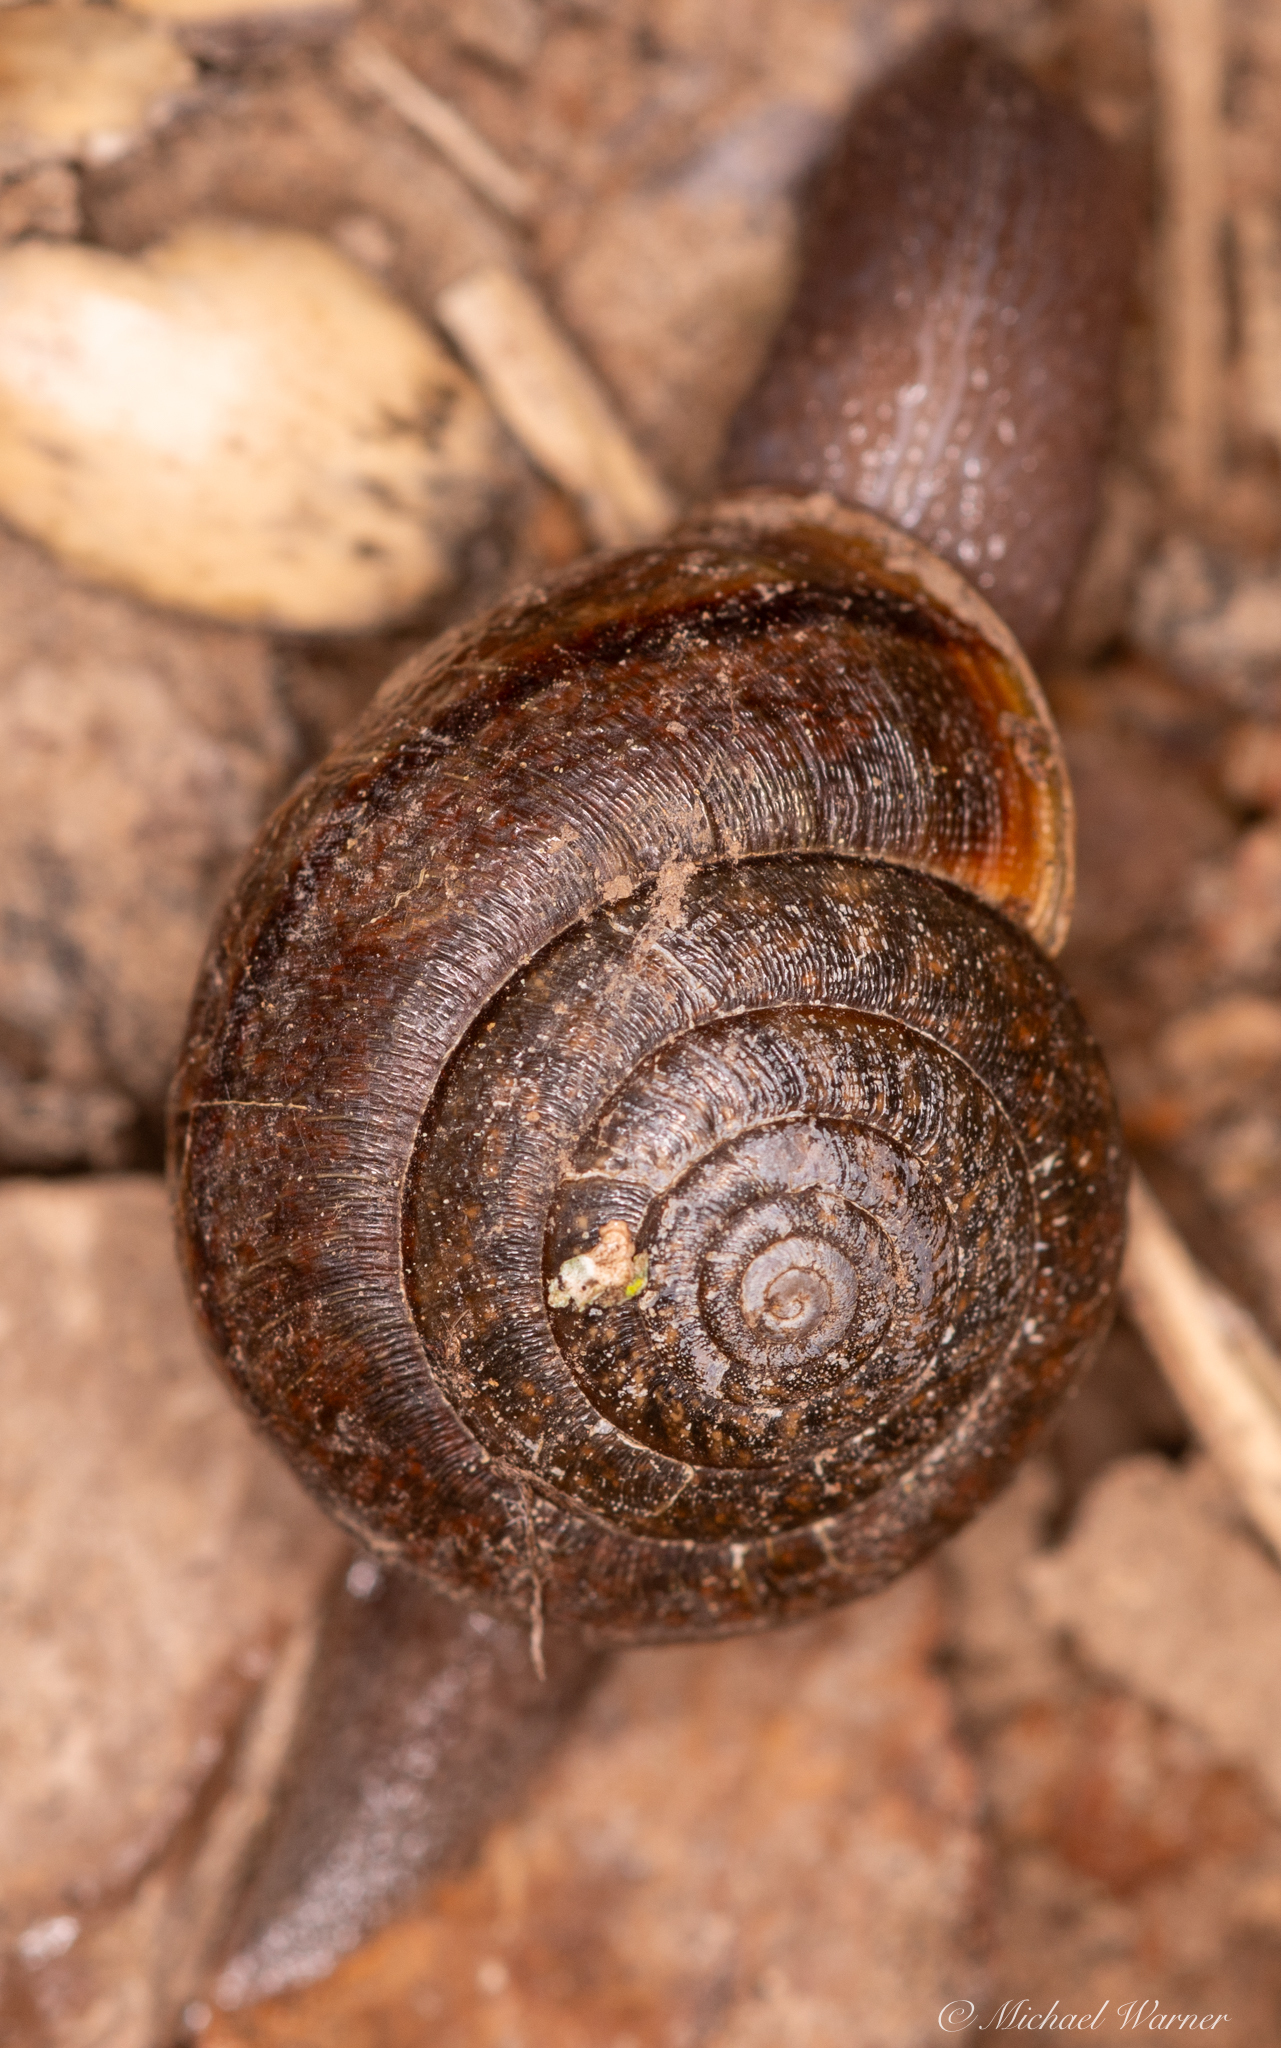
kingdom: Animalia
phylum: Mollusca
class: Gastropoda
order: Stylommatophora
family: Xanthonychidae
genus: Helminthoglypta
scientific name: Helminthoglypta diabloensis
